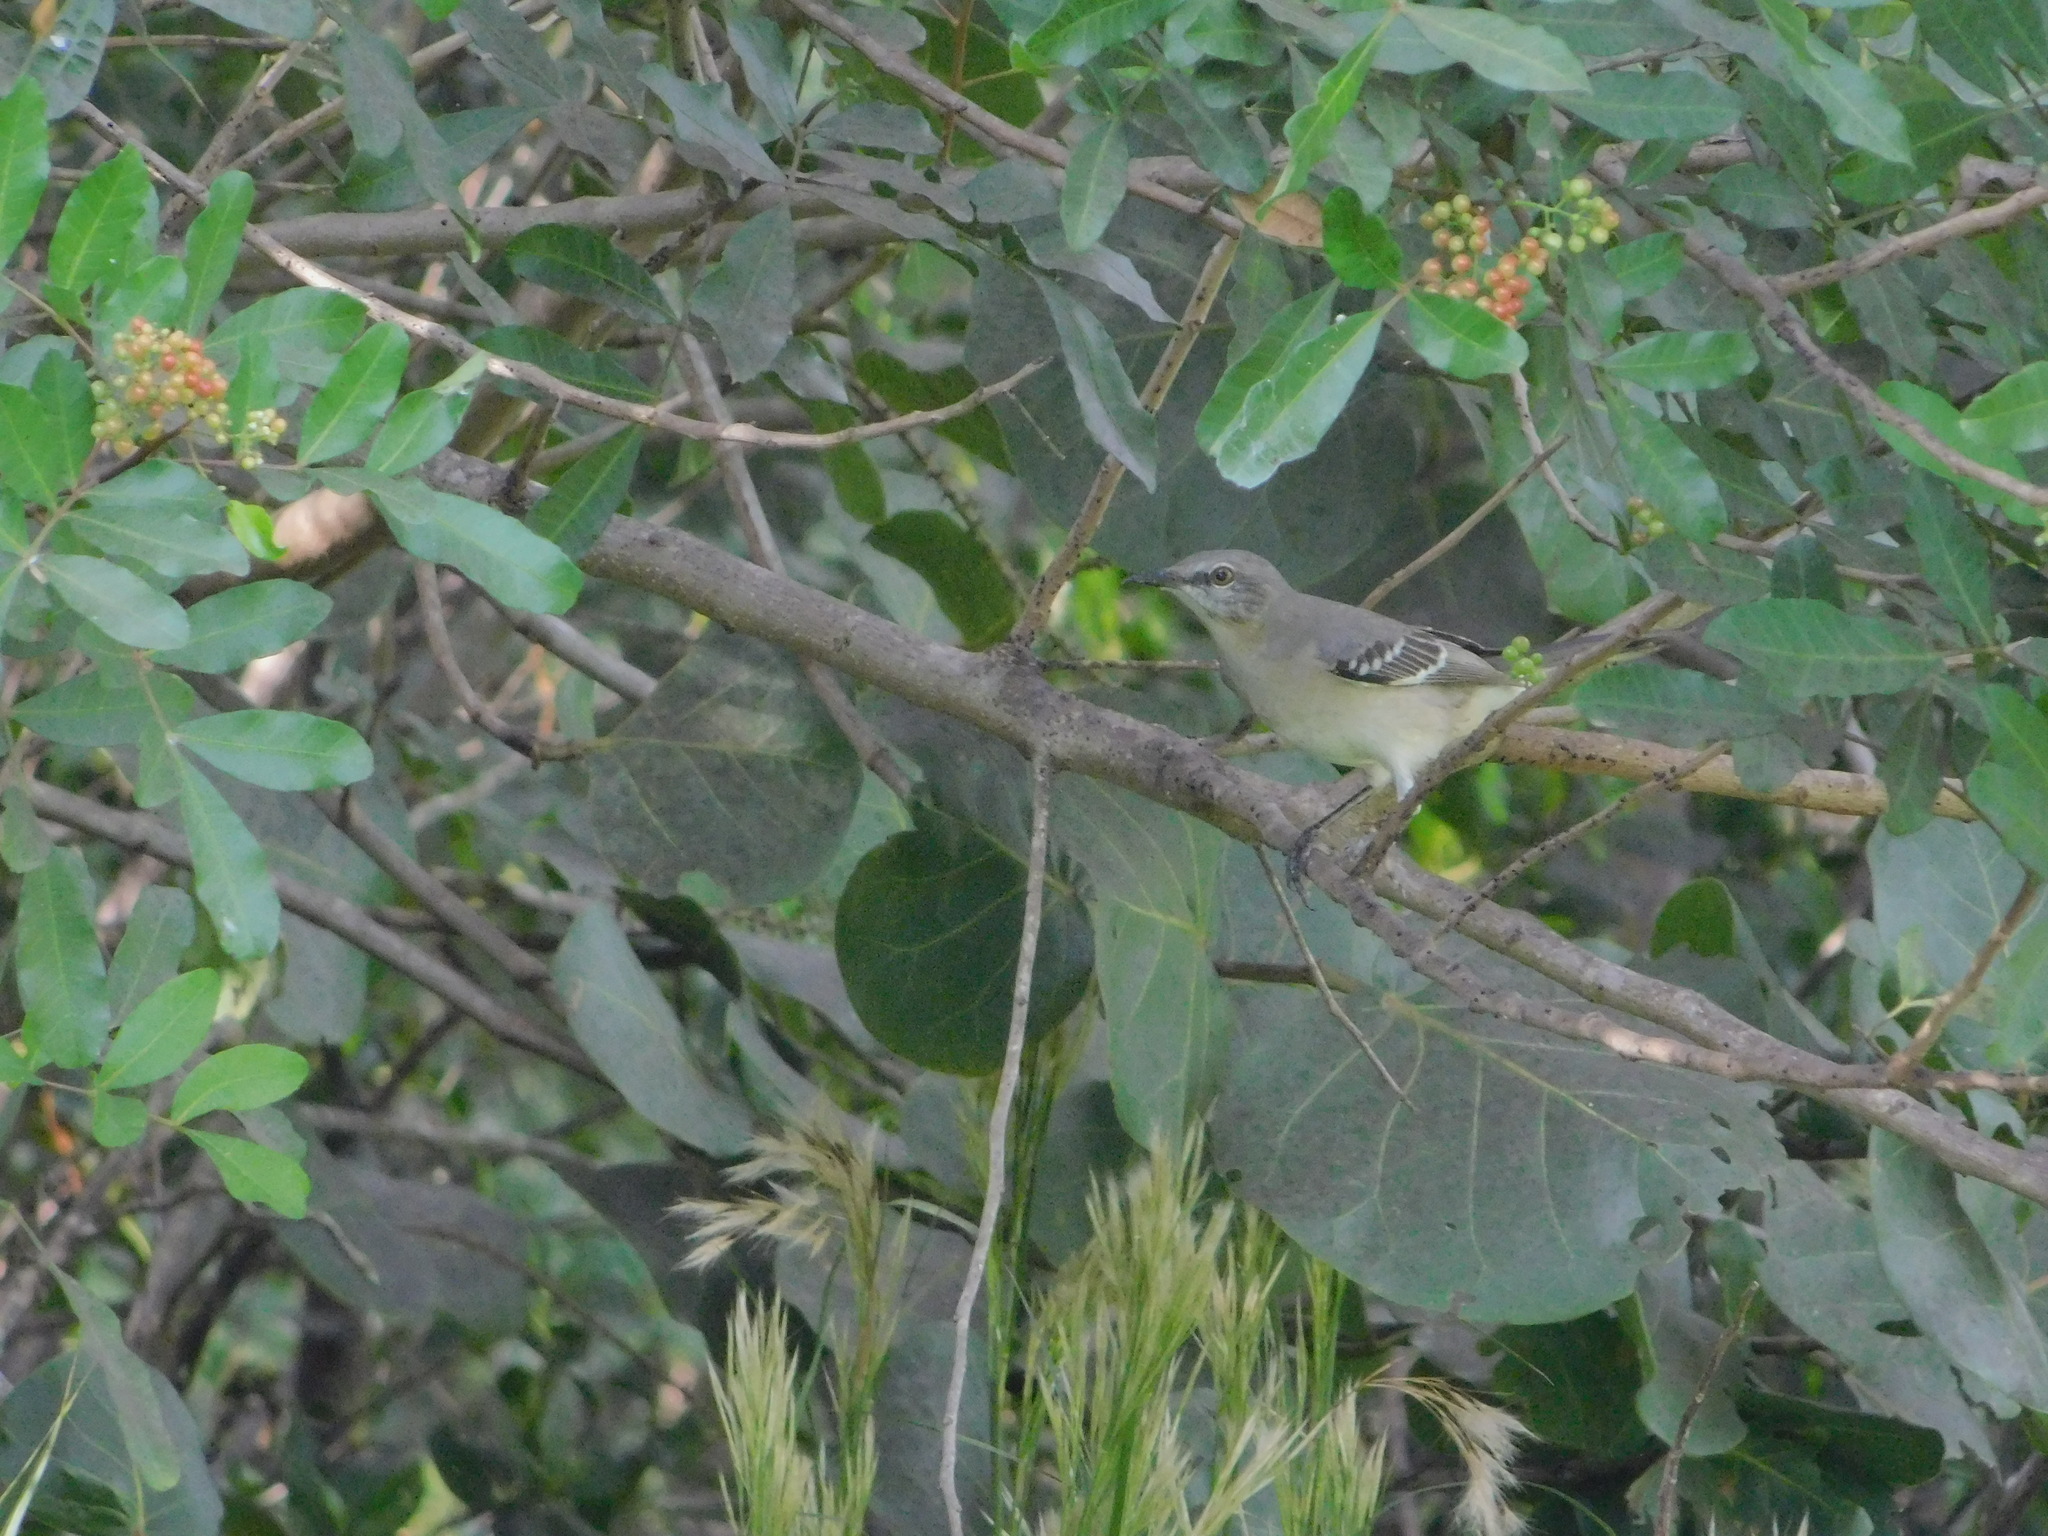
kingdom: Animalia
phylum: Chordata
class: Aves
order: Passeriformes
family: Mimidae
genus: Mimus
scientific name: Mimus polyglottos
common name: Northern mockingbird
